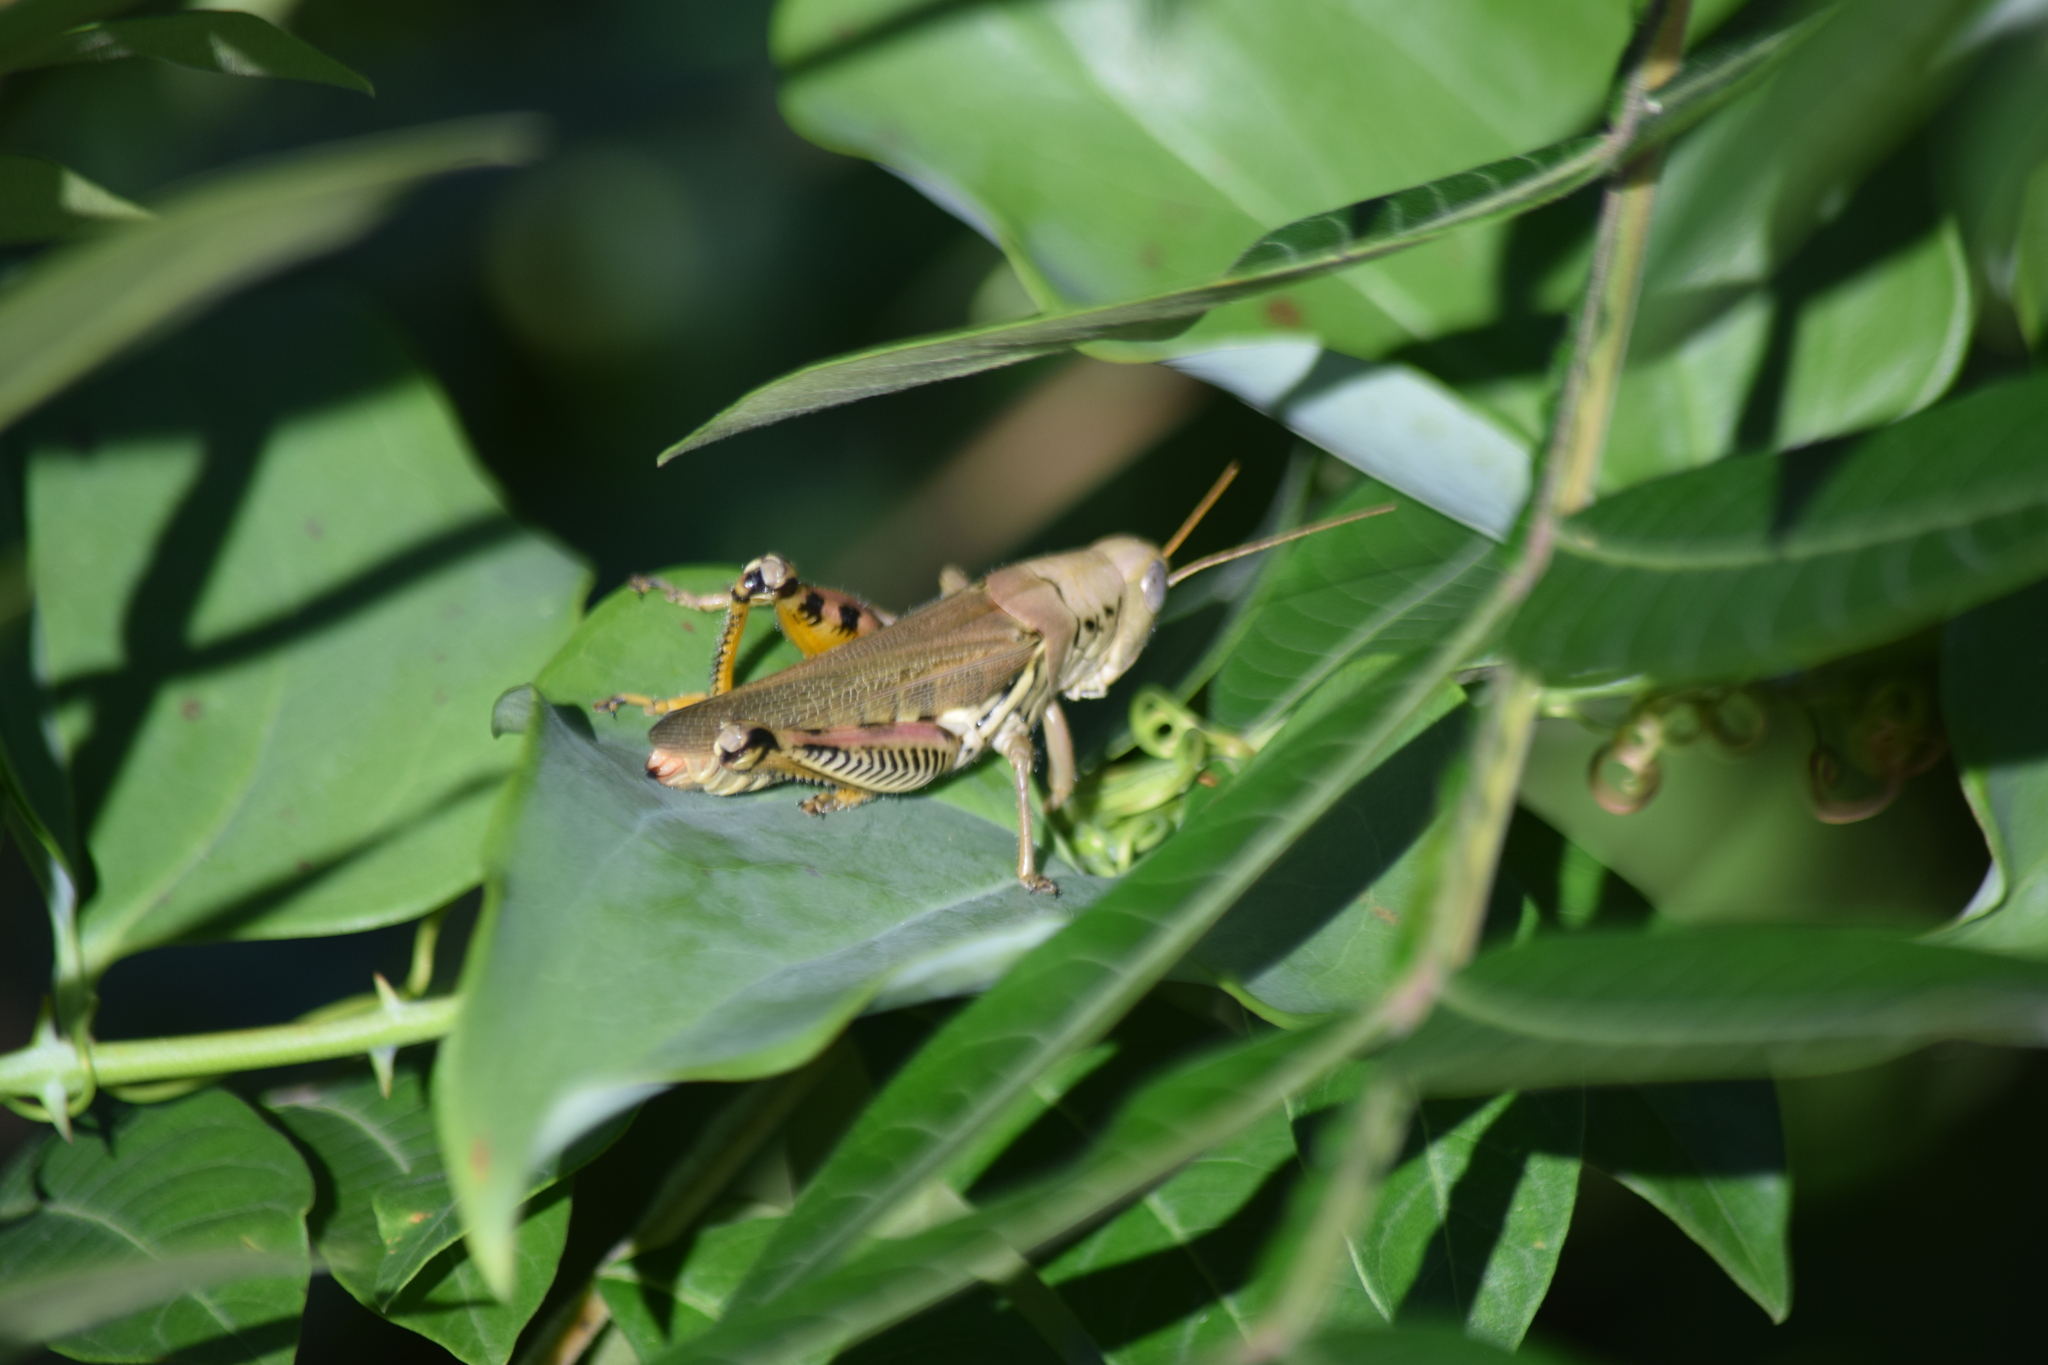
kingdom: Animalia
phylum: Arthropoda
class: Insecta
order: Orthoptera
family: Acrididae
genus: Melanoplus
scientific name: Melanoplus differentialis
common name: Differential grasshopper
